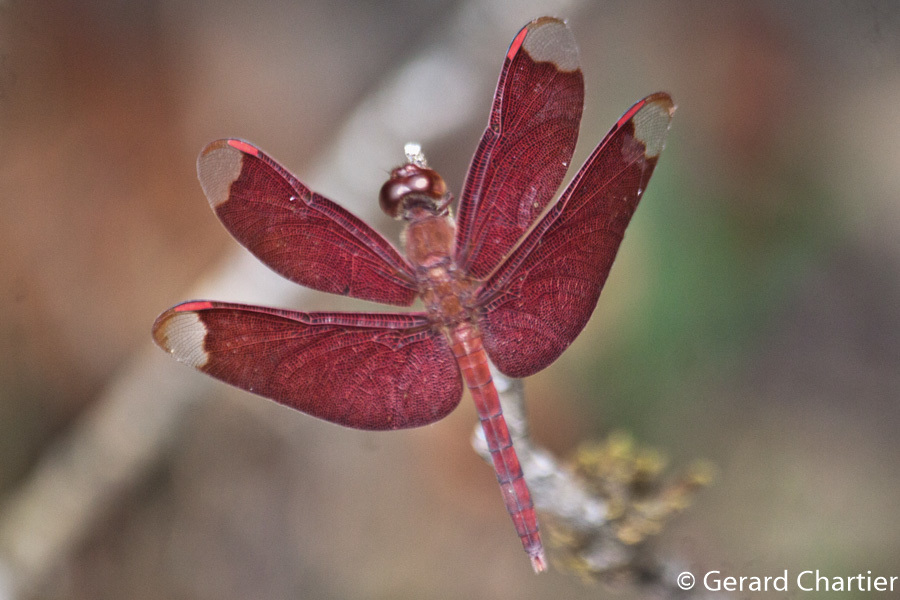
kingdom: Animalia
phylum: Arthropoda
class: Insecta
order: Odonata
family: Libellulidae
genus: Neurothemis
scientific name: Neurothemis fulvia
